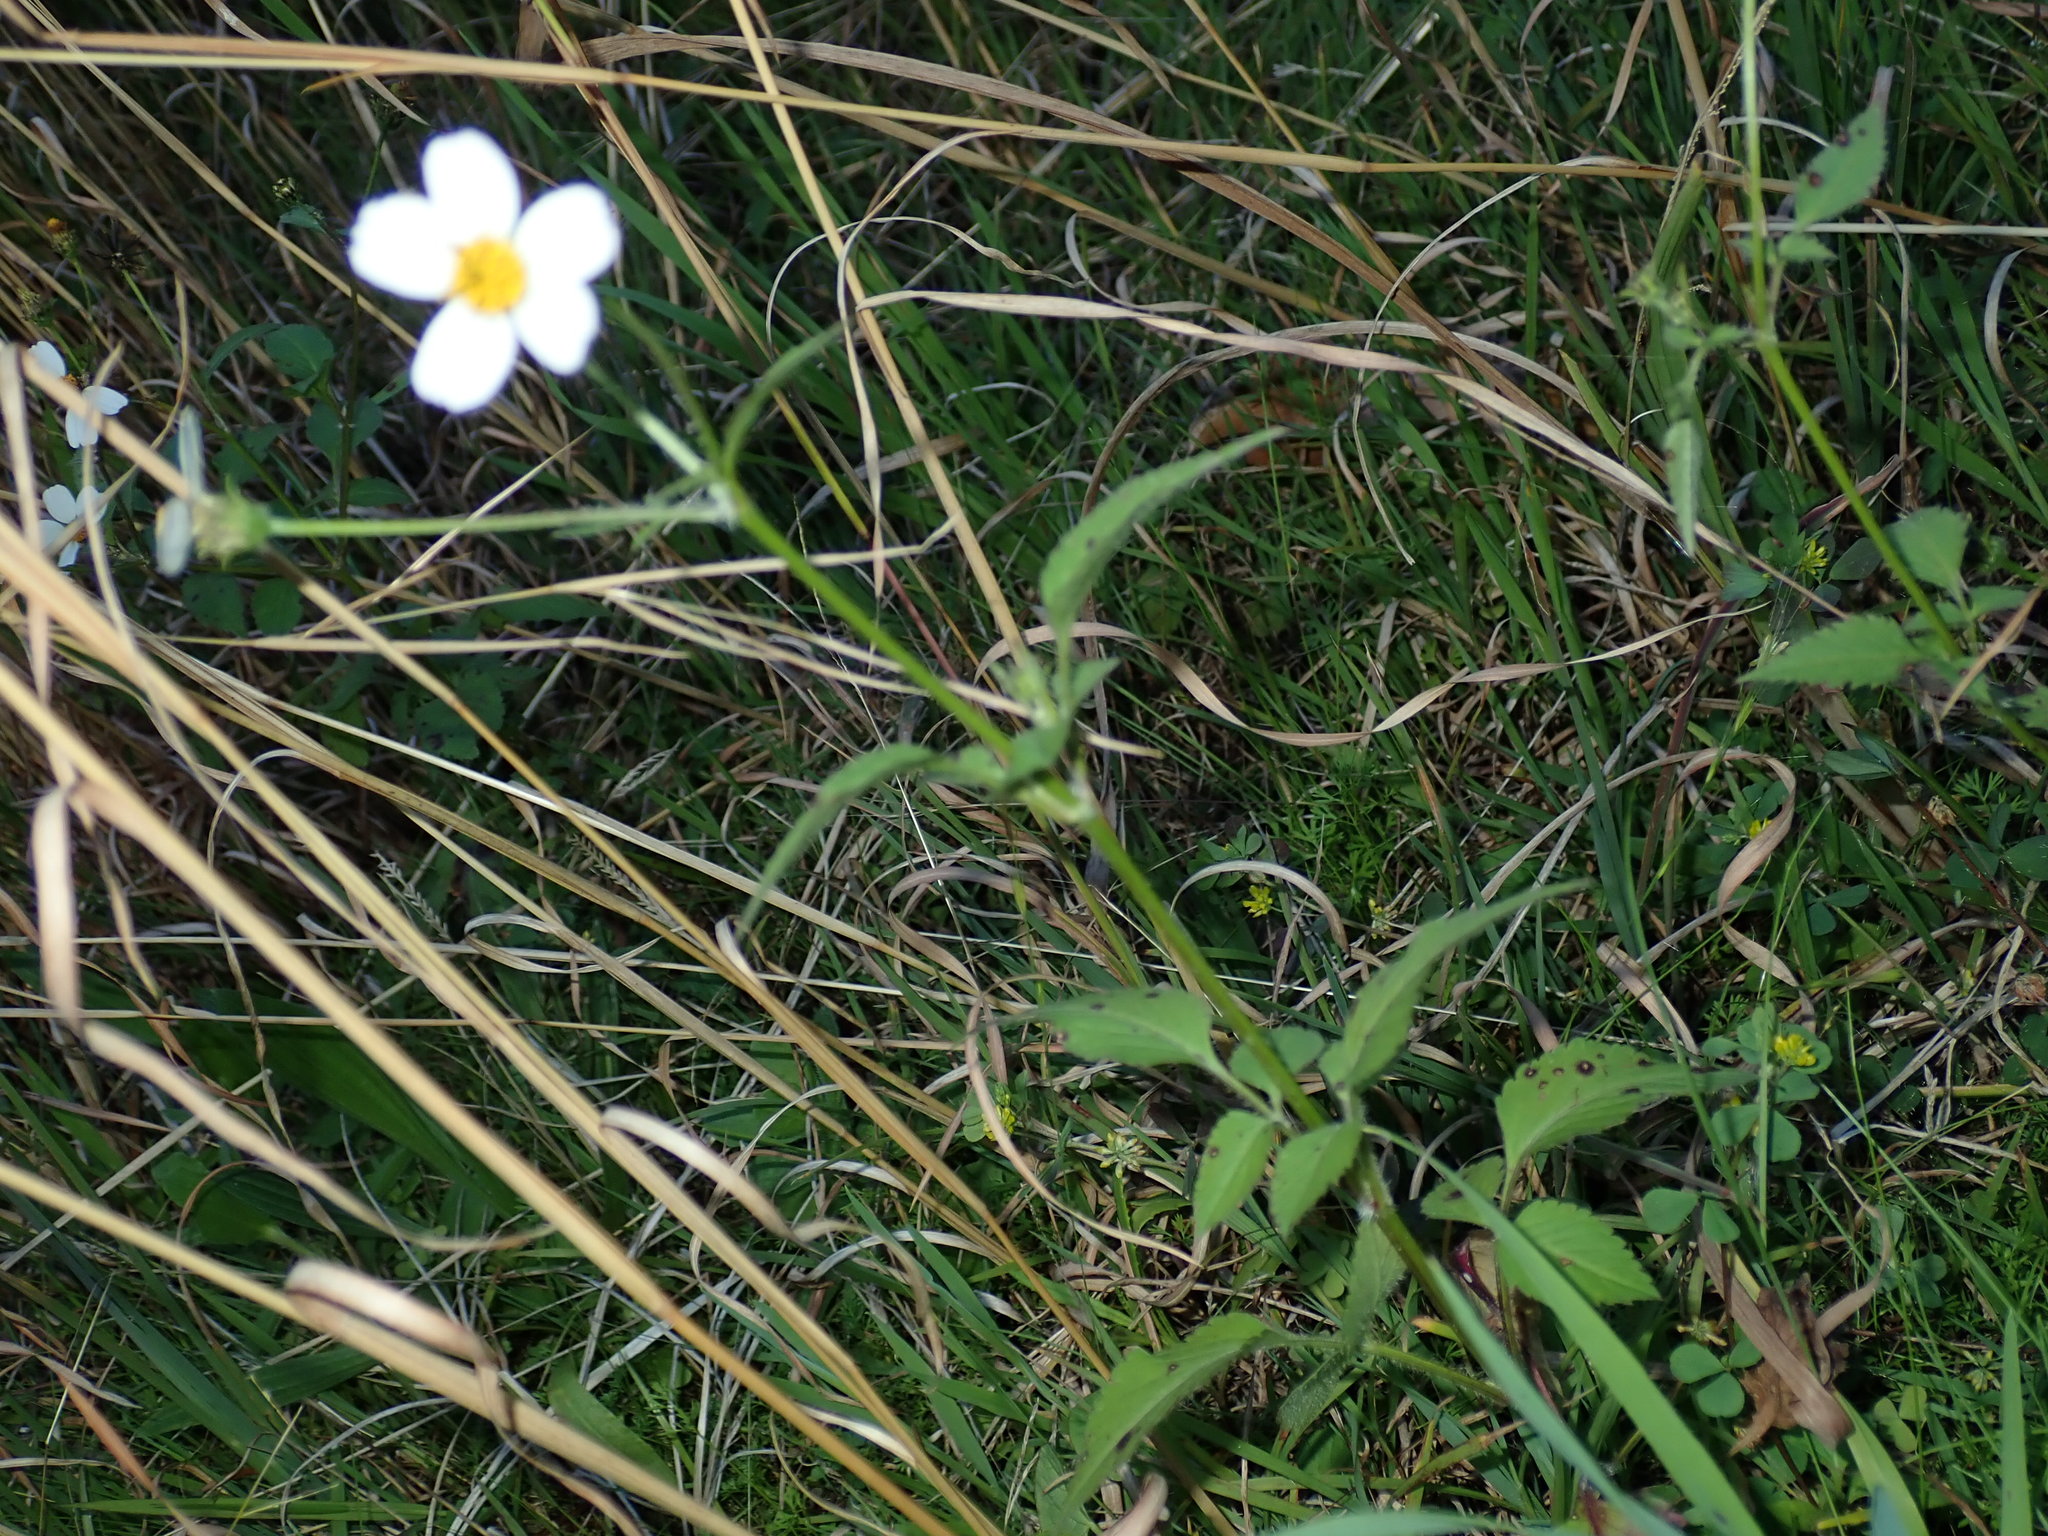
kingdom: Plantae
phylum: Tracheophyta
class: Magnoliopsida
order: Asterales
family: Asteraceae
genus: Bidens
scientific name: Bidens alba
